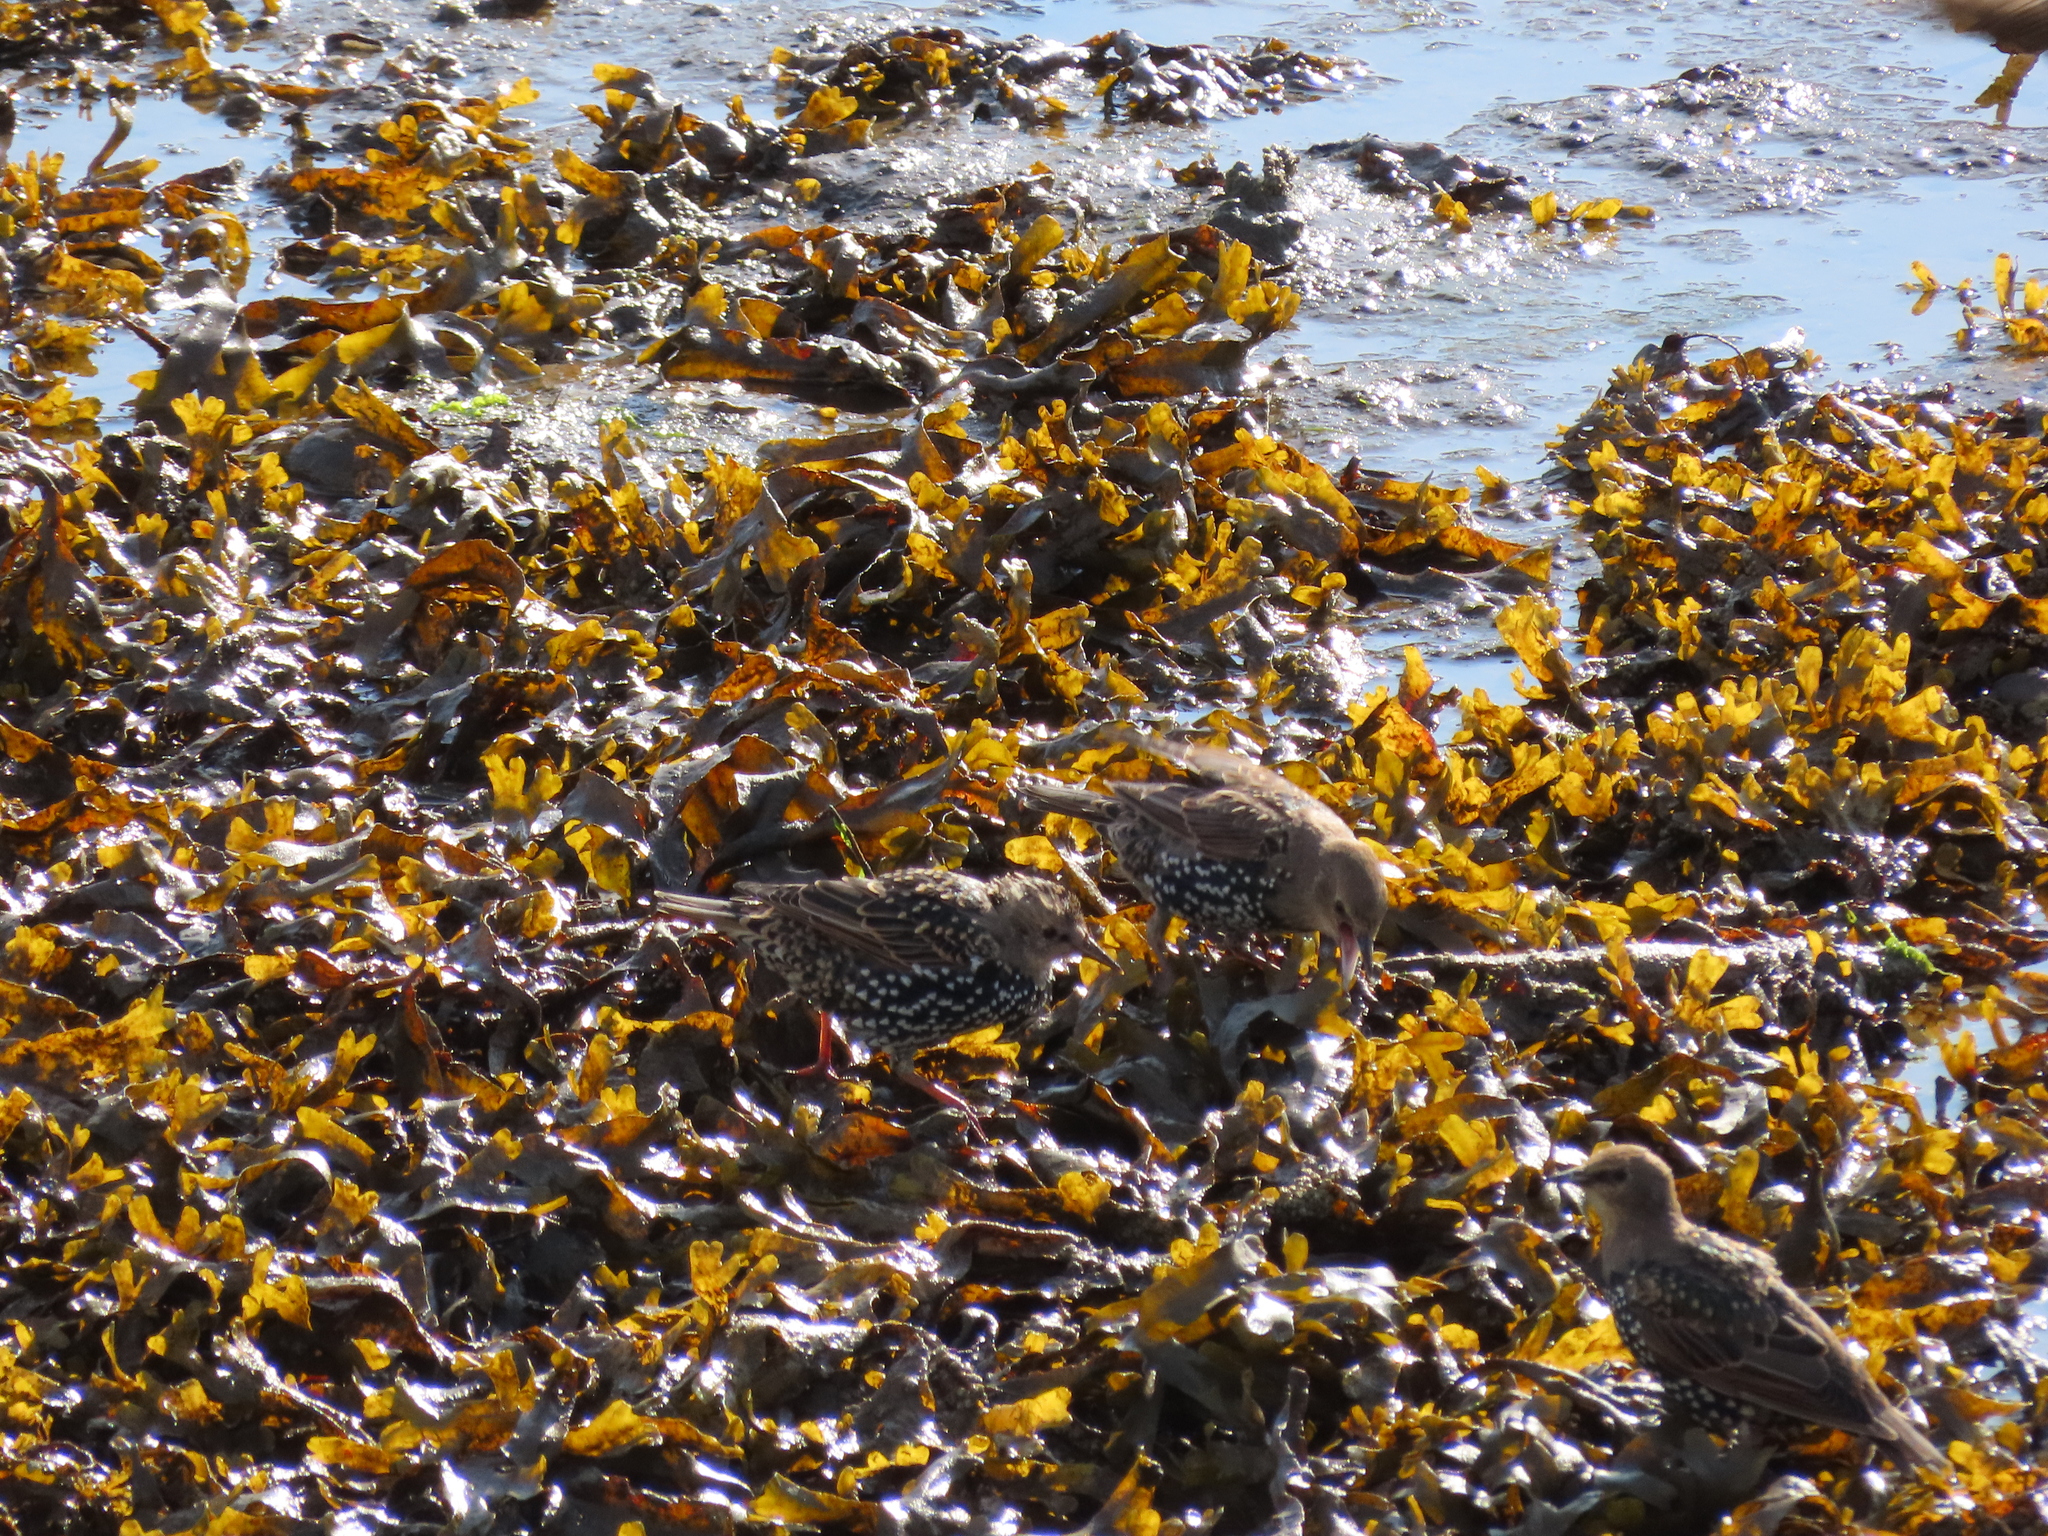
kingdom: Animalia
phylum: Chordata
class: Aves
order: Passeriformes
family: Sturnidae
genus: Sturnus
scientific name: Sturnus vulgaris
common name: Common starling
